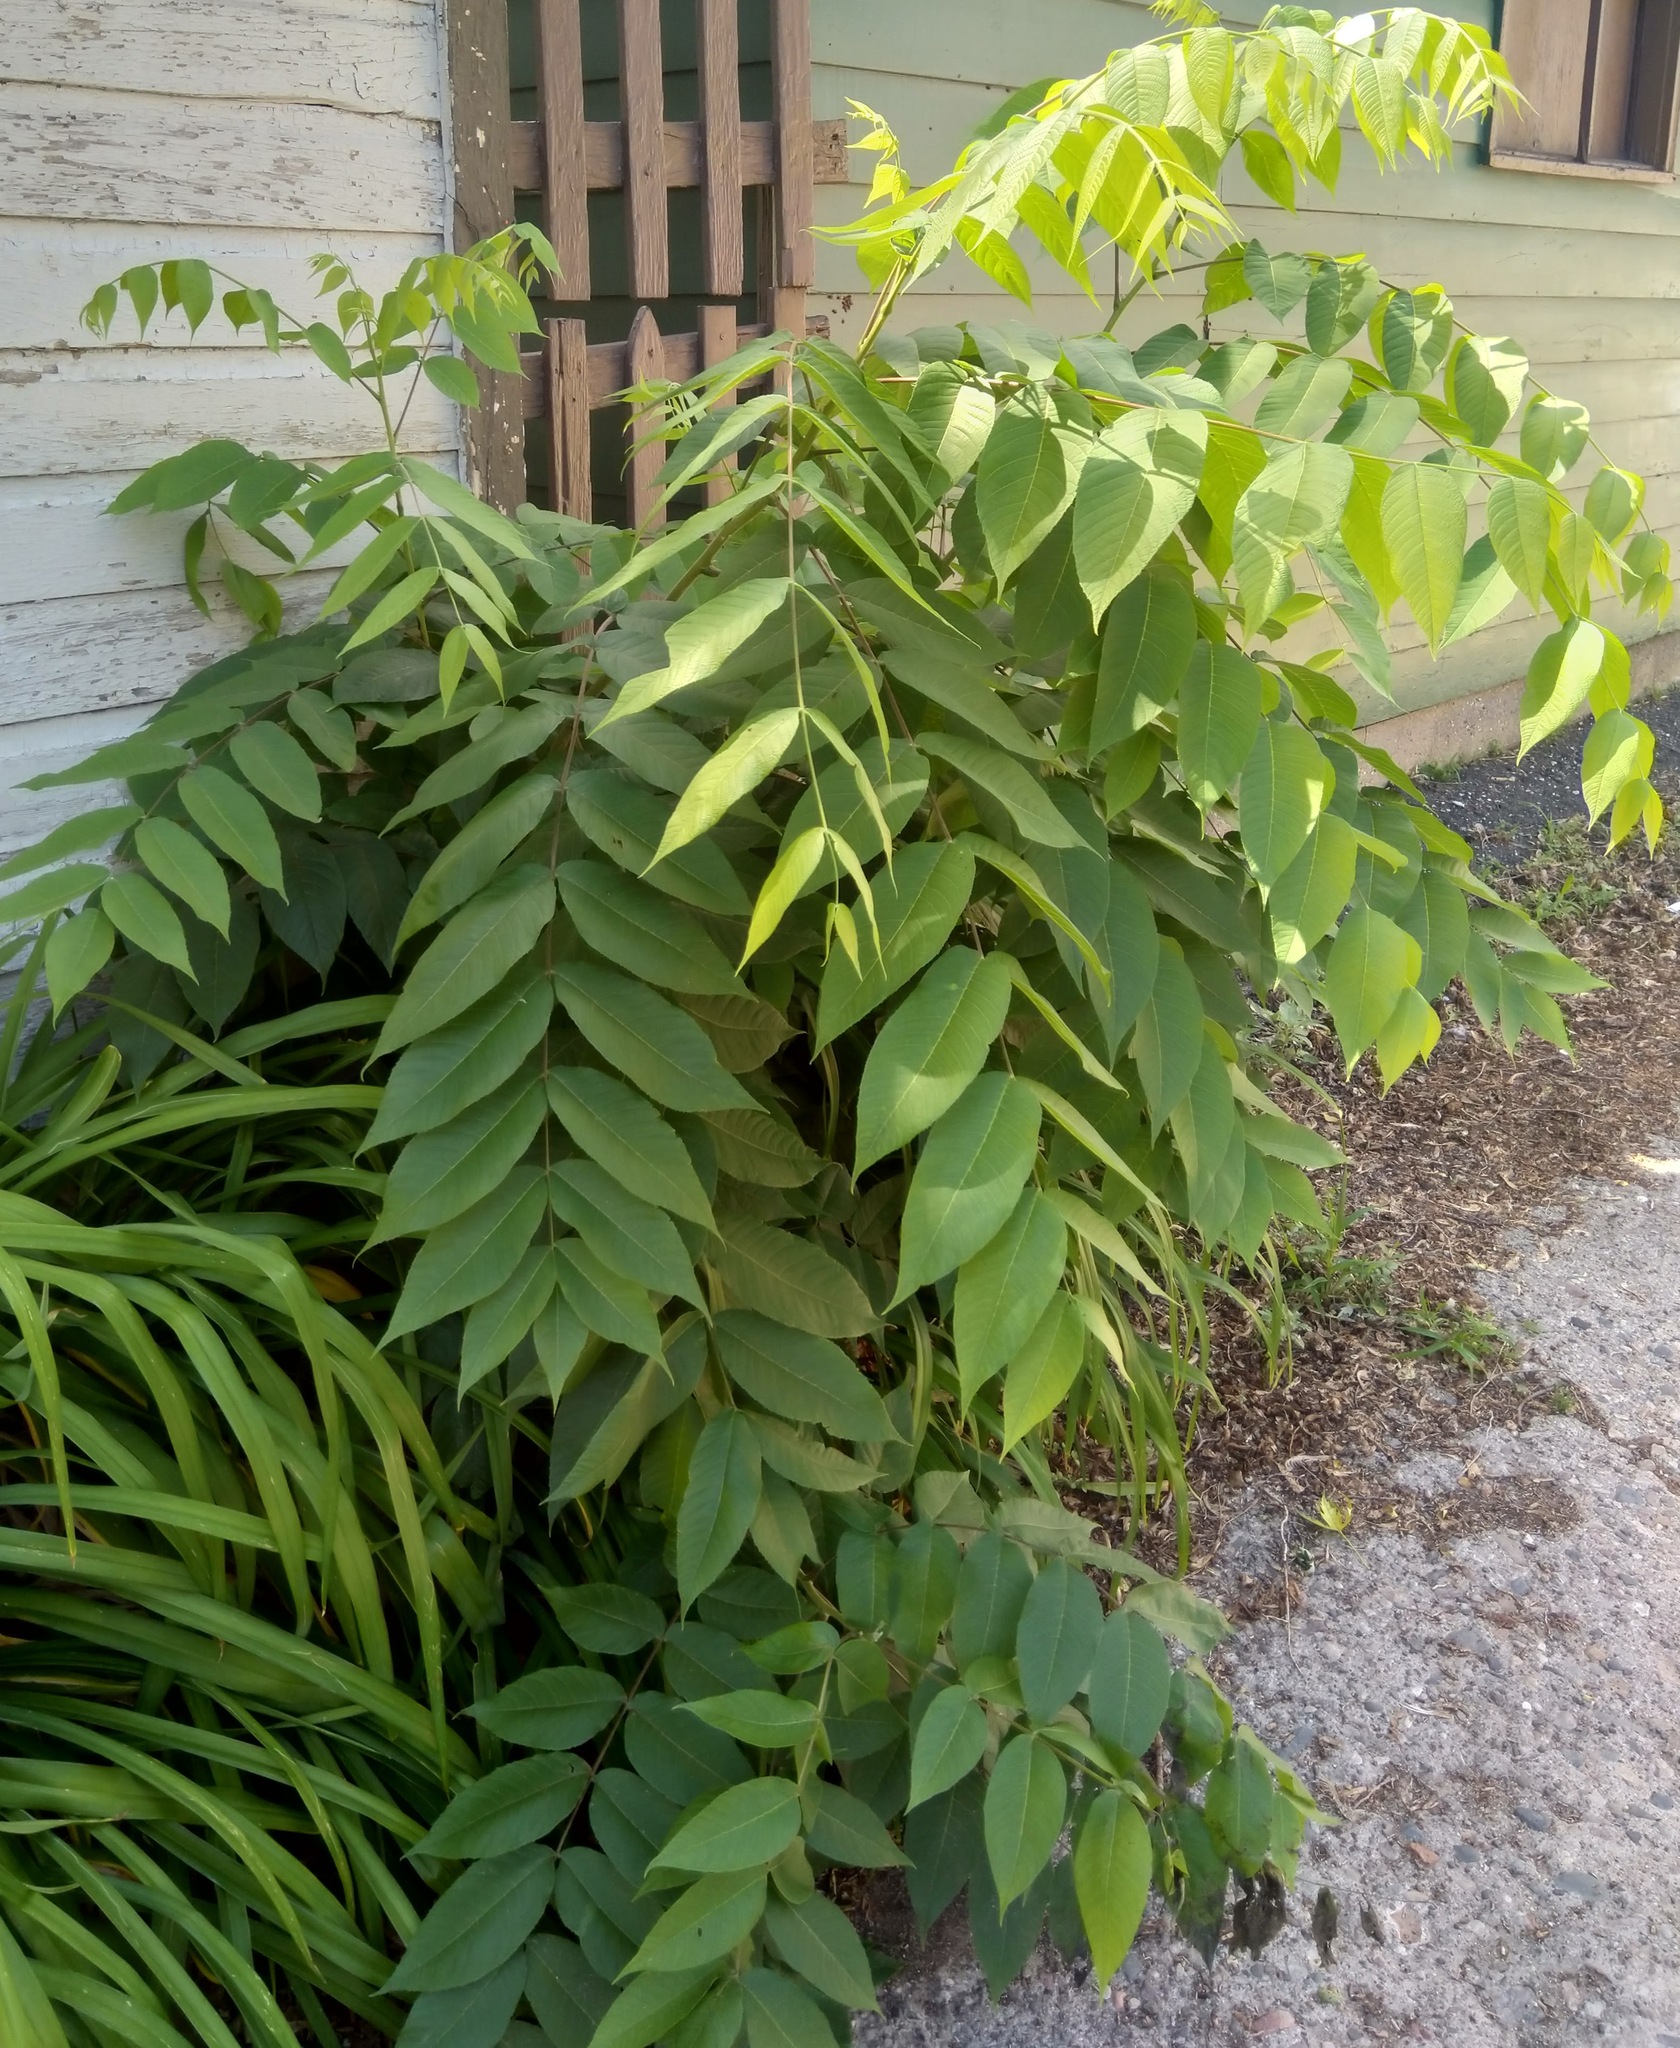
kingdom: Plantae
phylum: Tracheophyta
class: Magnoliopsida
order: Fagales
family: Juglandaceae
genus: Juglans
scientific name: Juglans nigra
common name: Black walnut
